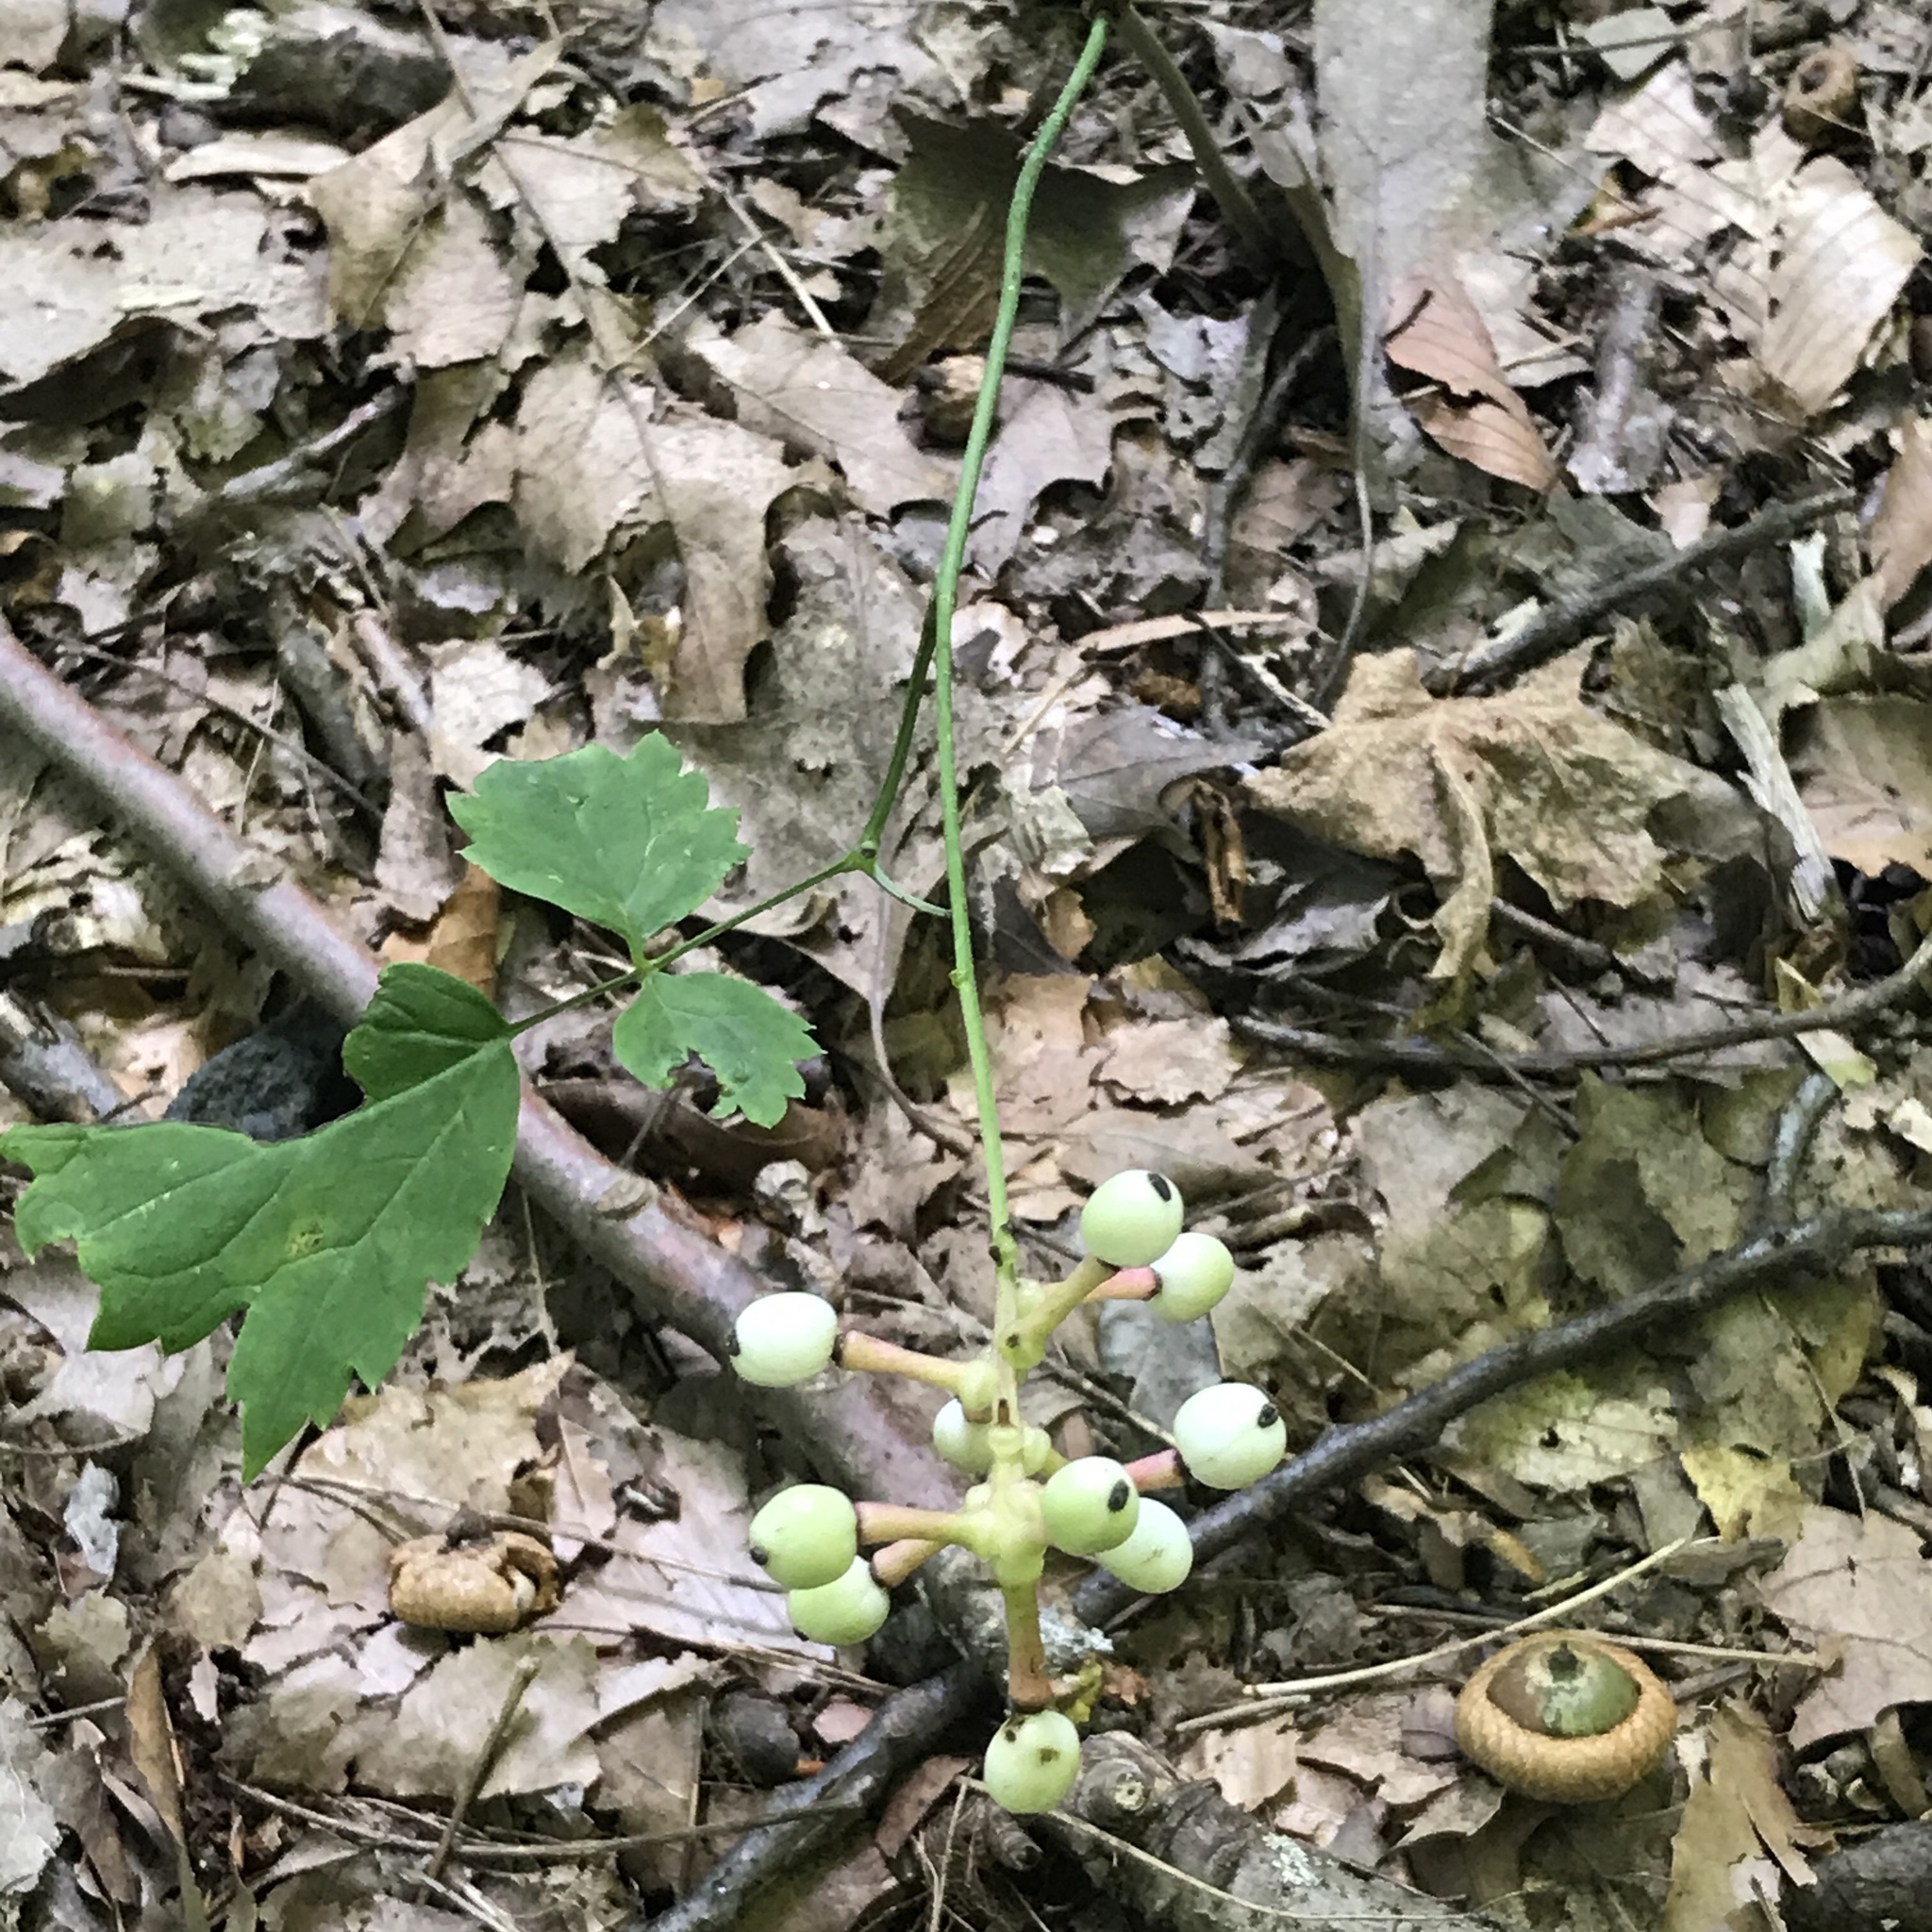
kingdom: Plantae
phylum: Tracheophyta
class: Magnoliopsida
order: Ranunculales
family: Ranunculaceae
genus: Actaea
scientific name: Actaea pachypoda
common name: Doll's-eyes
